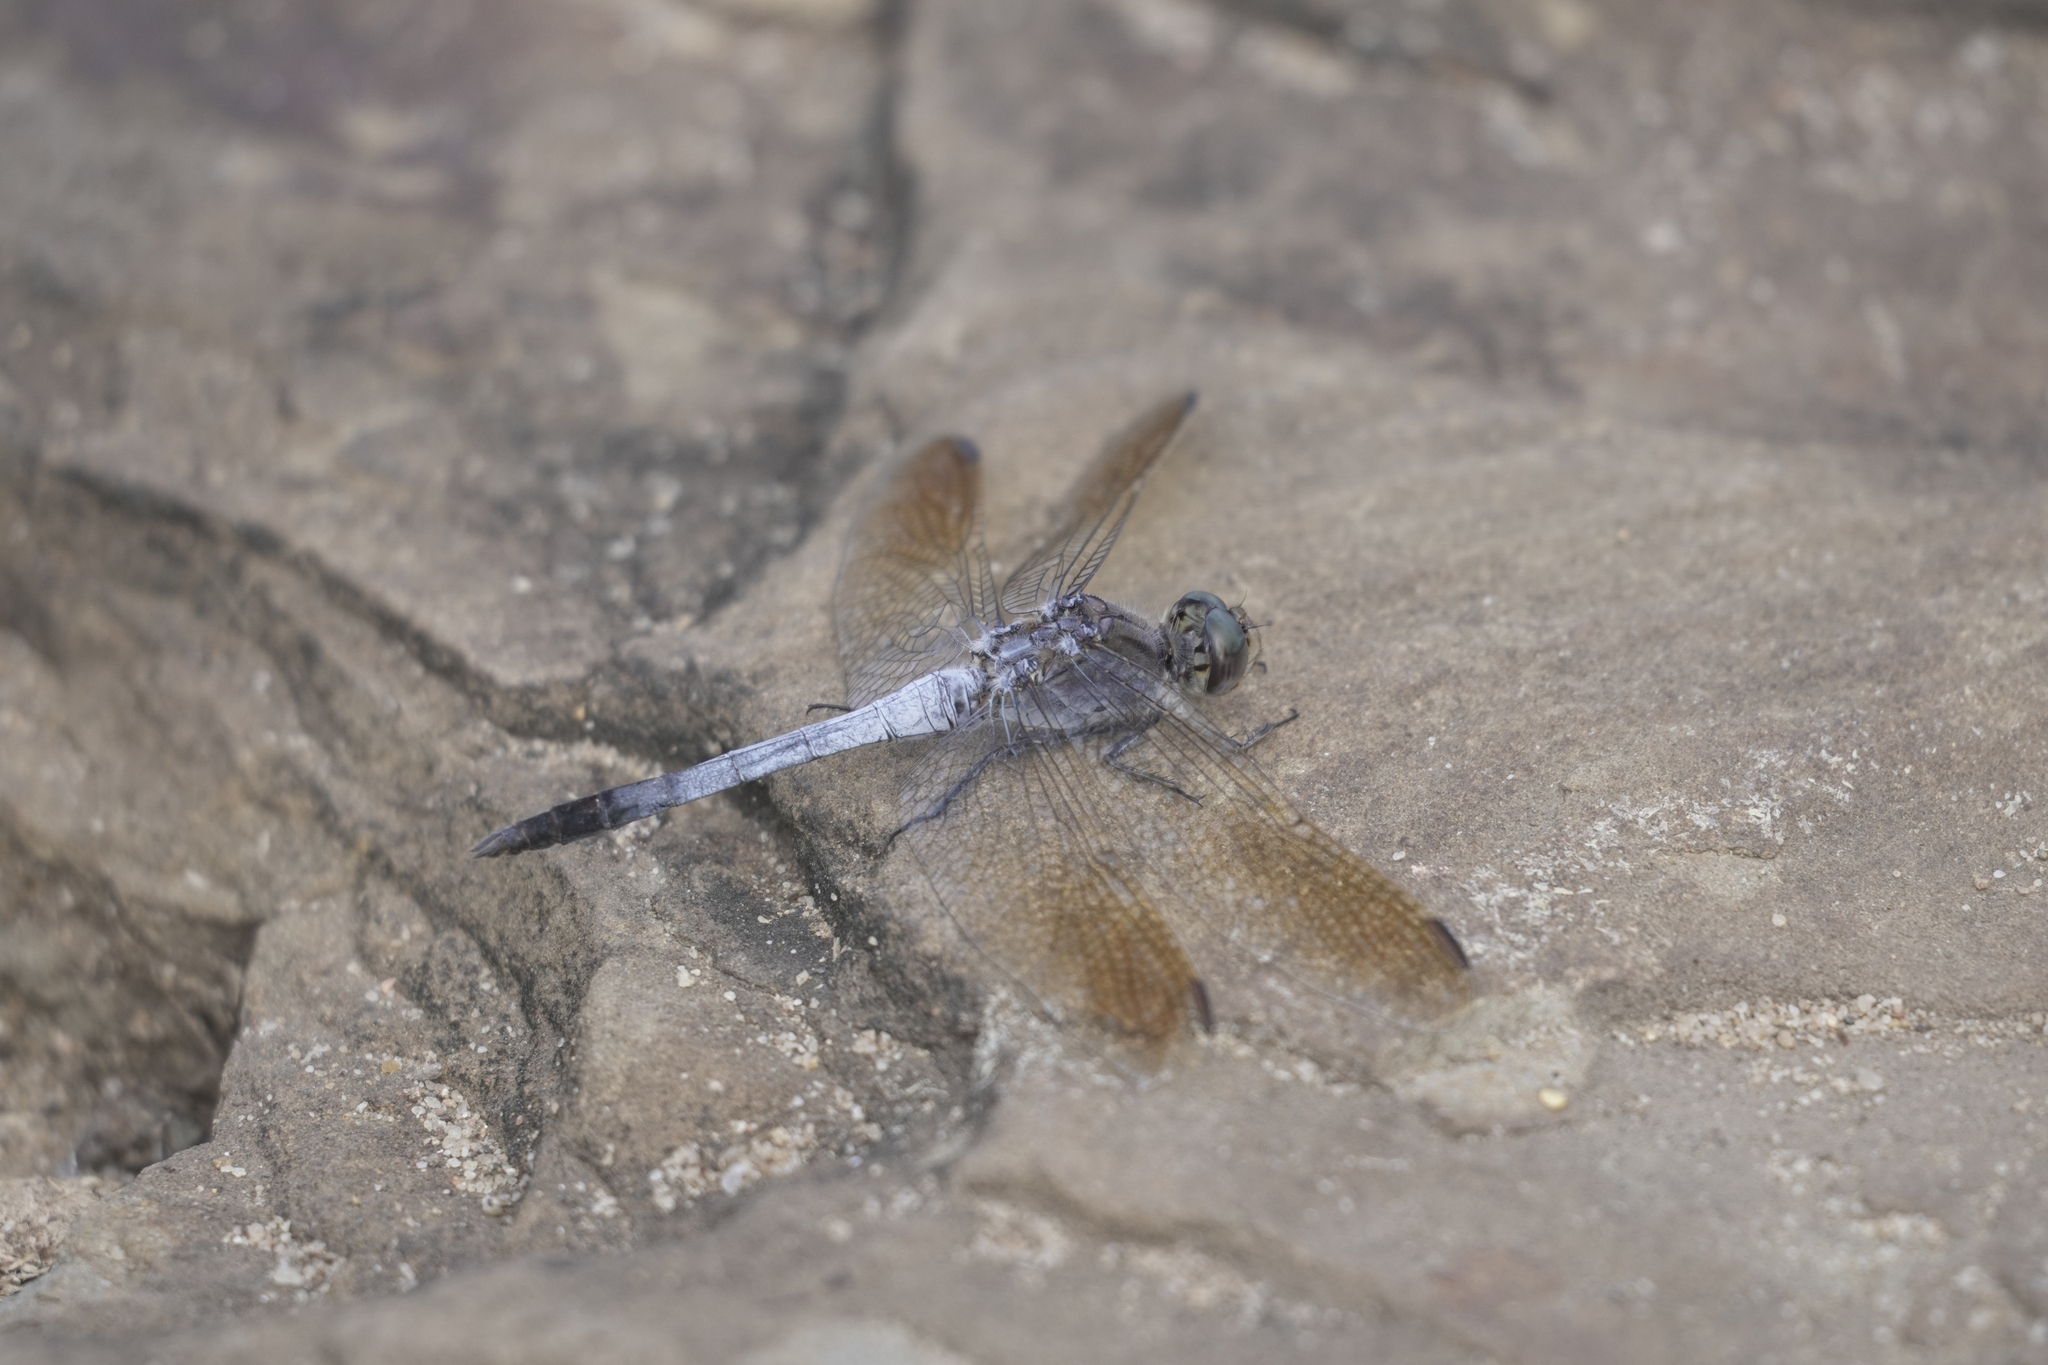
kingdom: Animalia
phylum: Arthropoda
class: Insecta
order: Odonata
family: Libellulidae
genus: Orthetrum
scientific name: Orthetrum caledonicum
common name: Blue skimmer
